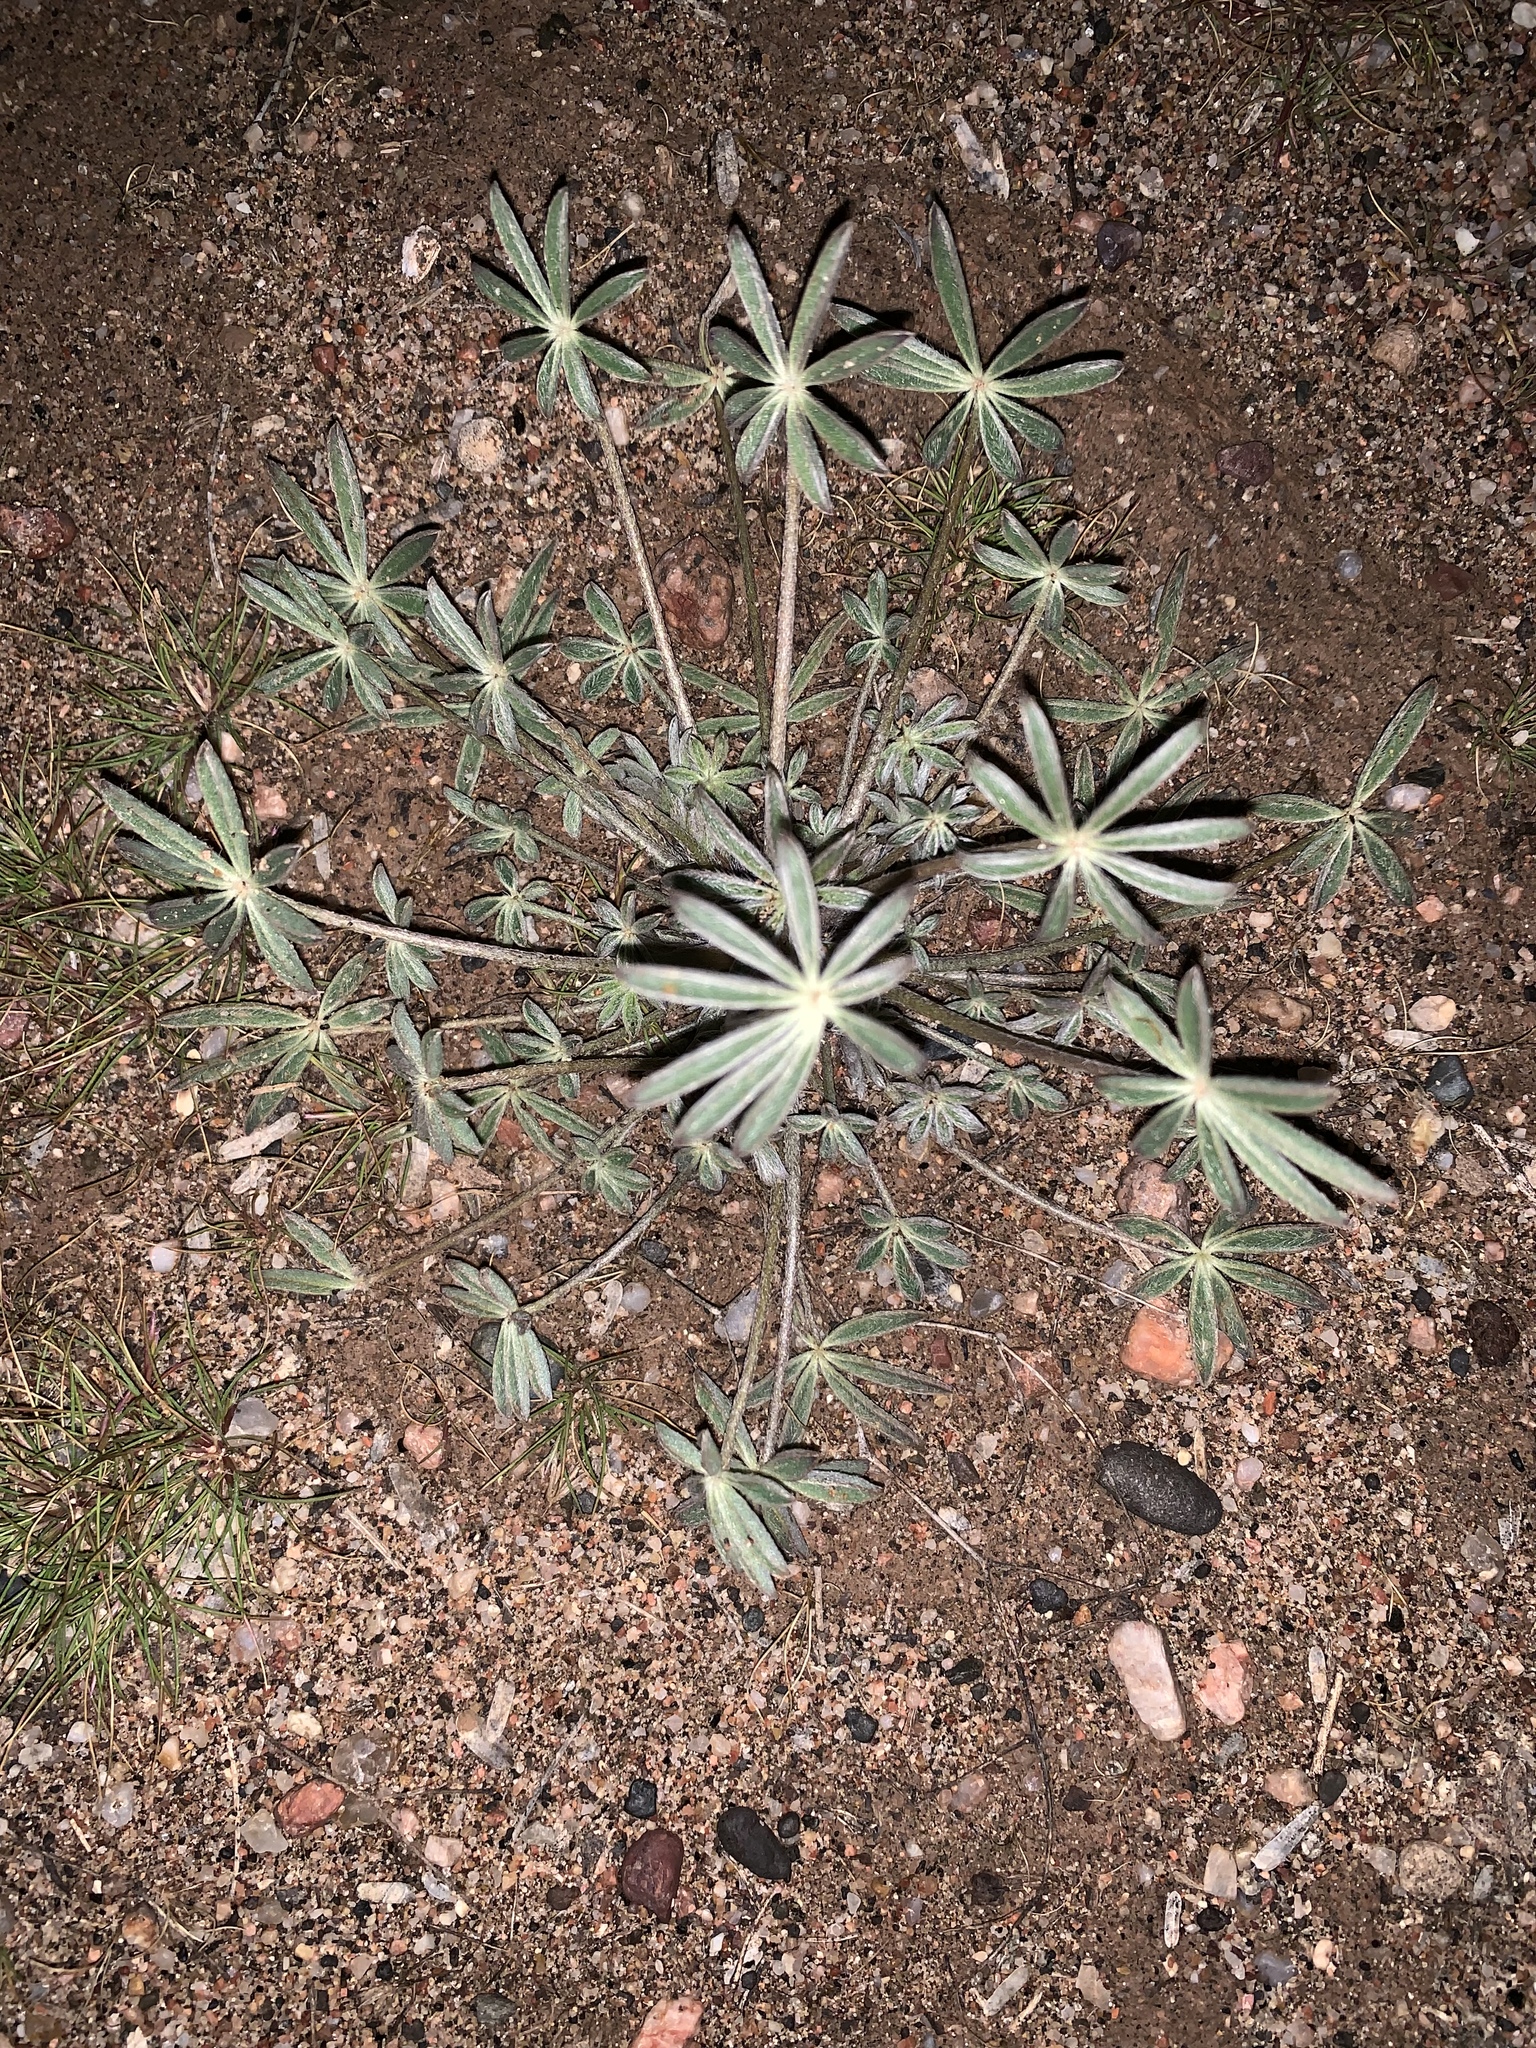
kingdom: Plantae
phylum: Tracheophyta
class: Magnoliopsida
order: Fabales
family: Fabaceae
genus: Lupinus
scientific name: Lupinus sparsiflorus
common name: Coulter's lupine
